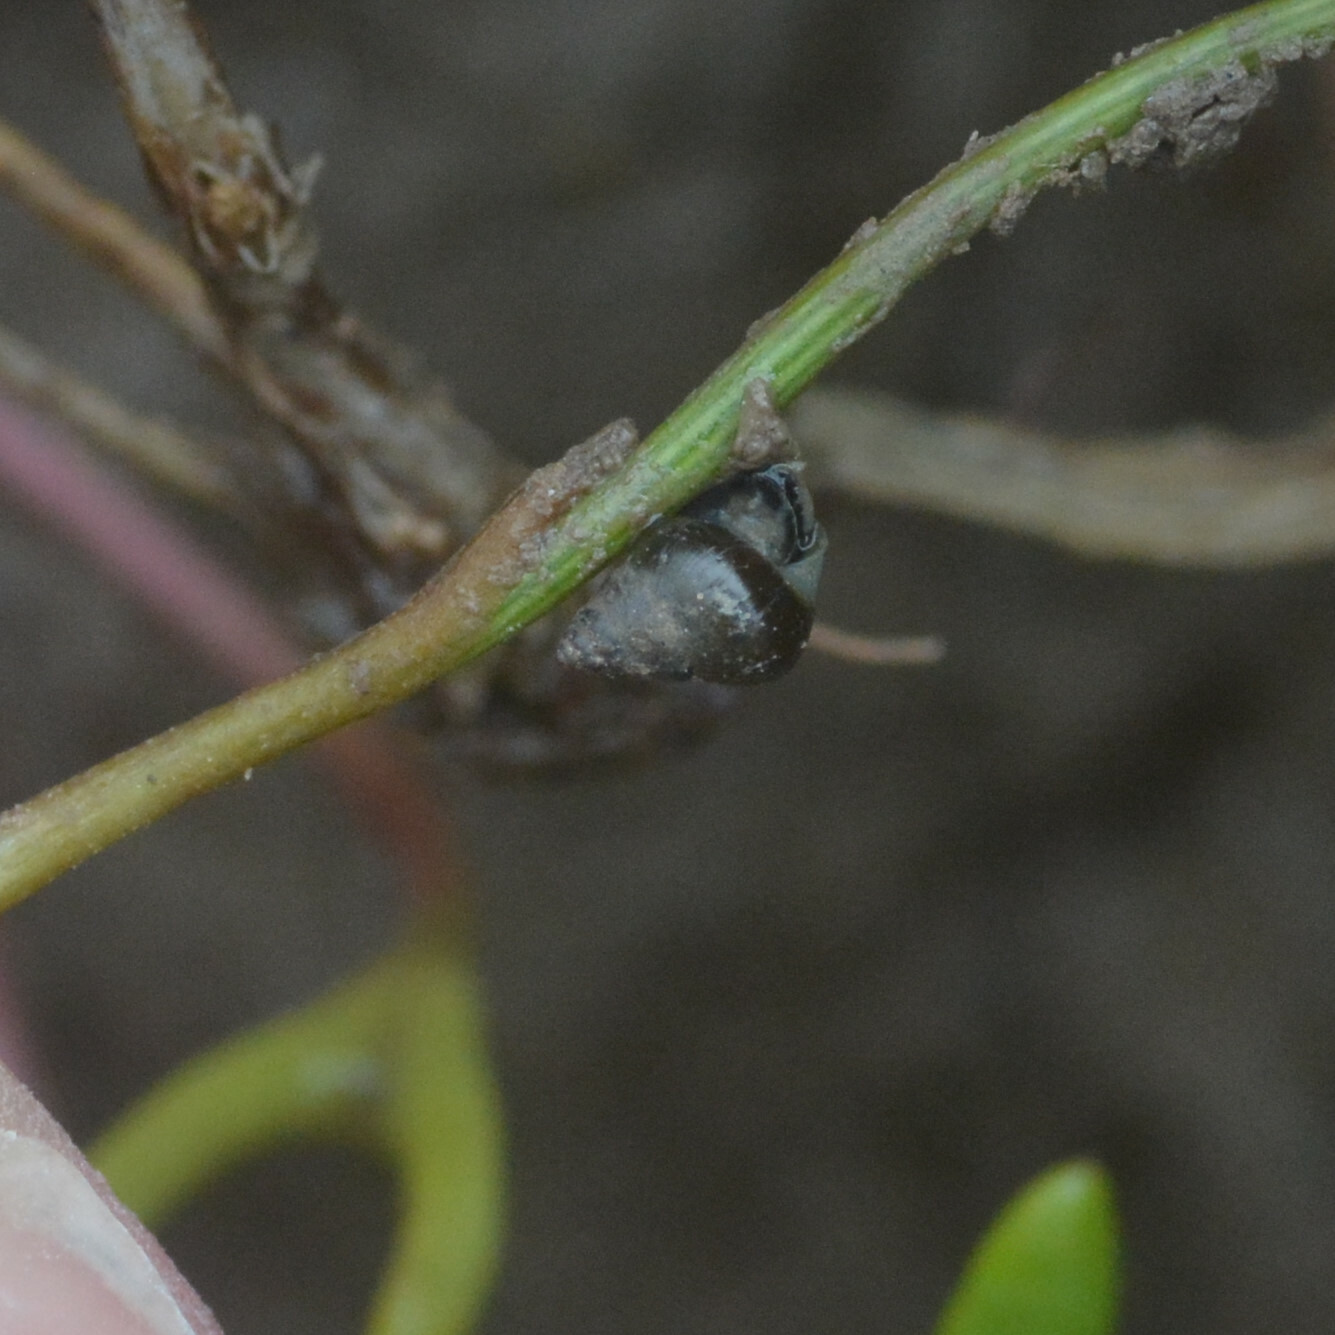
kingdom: Animalia
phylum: Mollusca
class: Gastropoda
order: Littorinimorpha
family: Assimineidae
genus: Assiminea
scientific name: Assiminea grayana
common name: Dun sentinel
